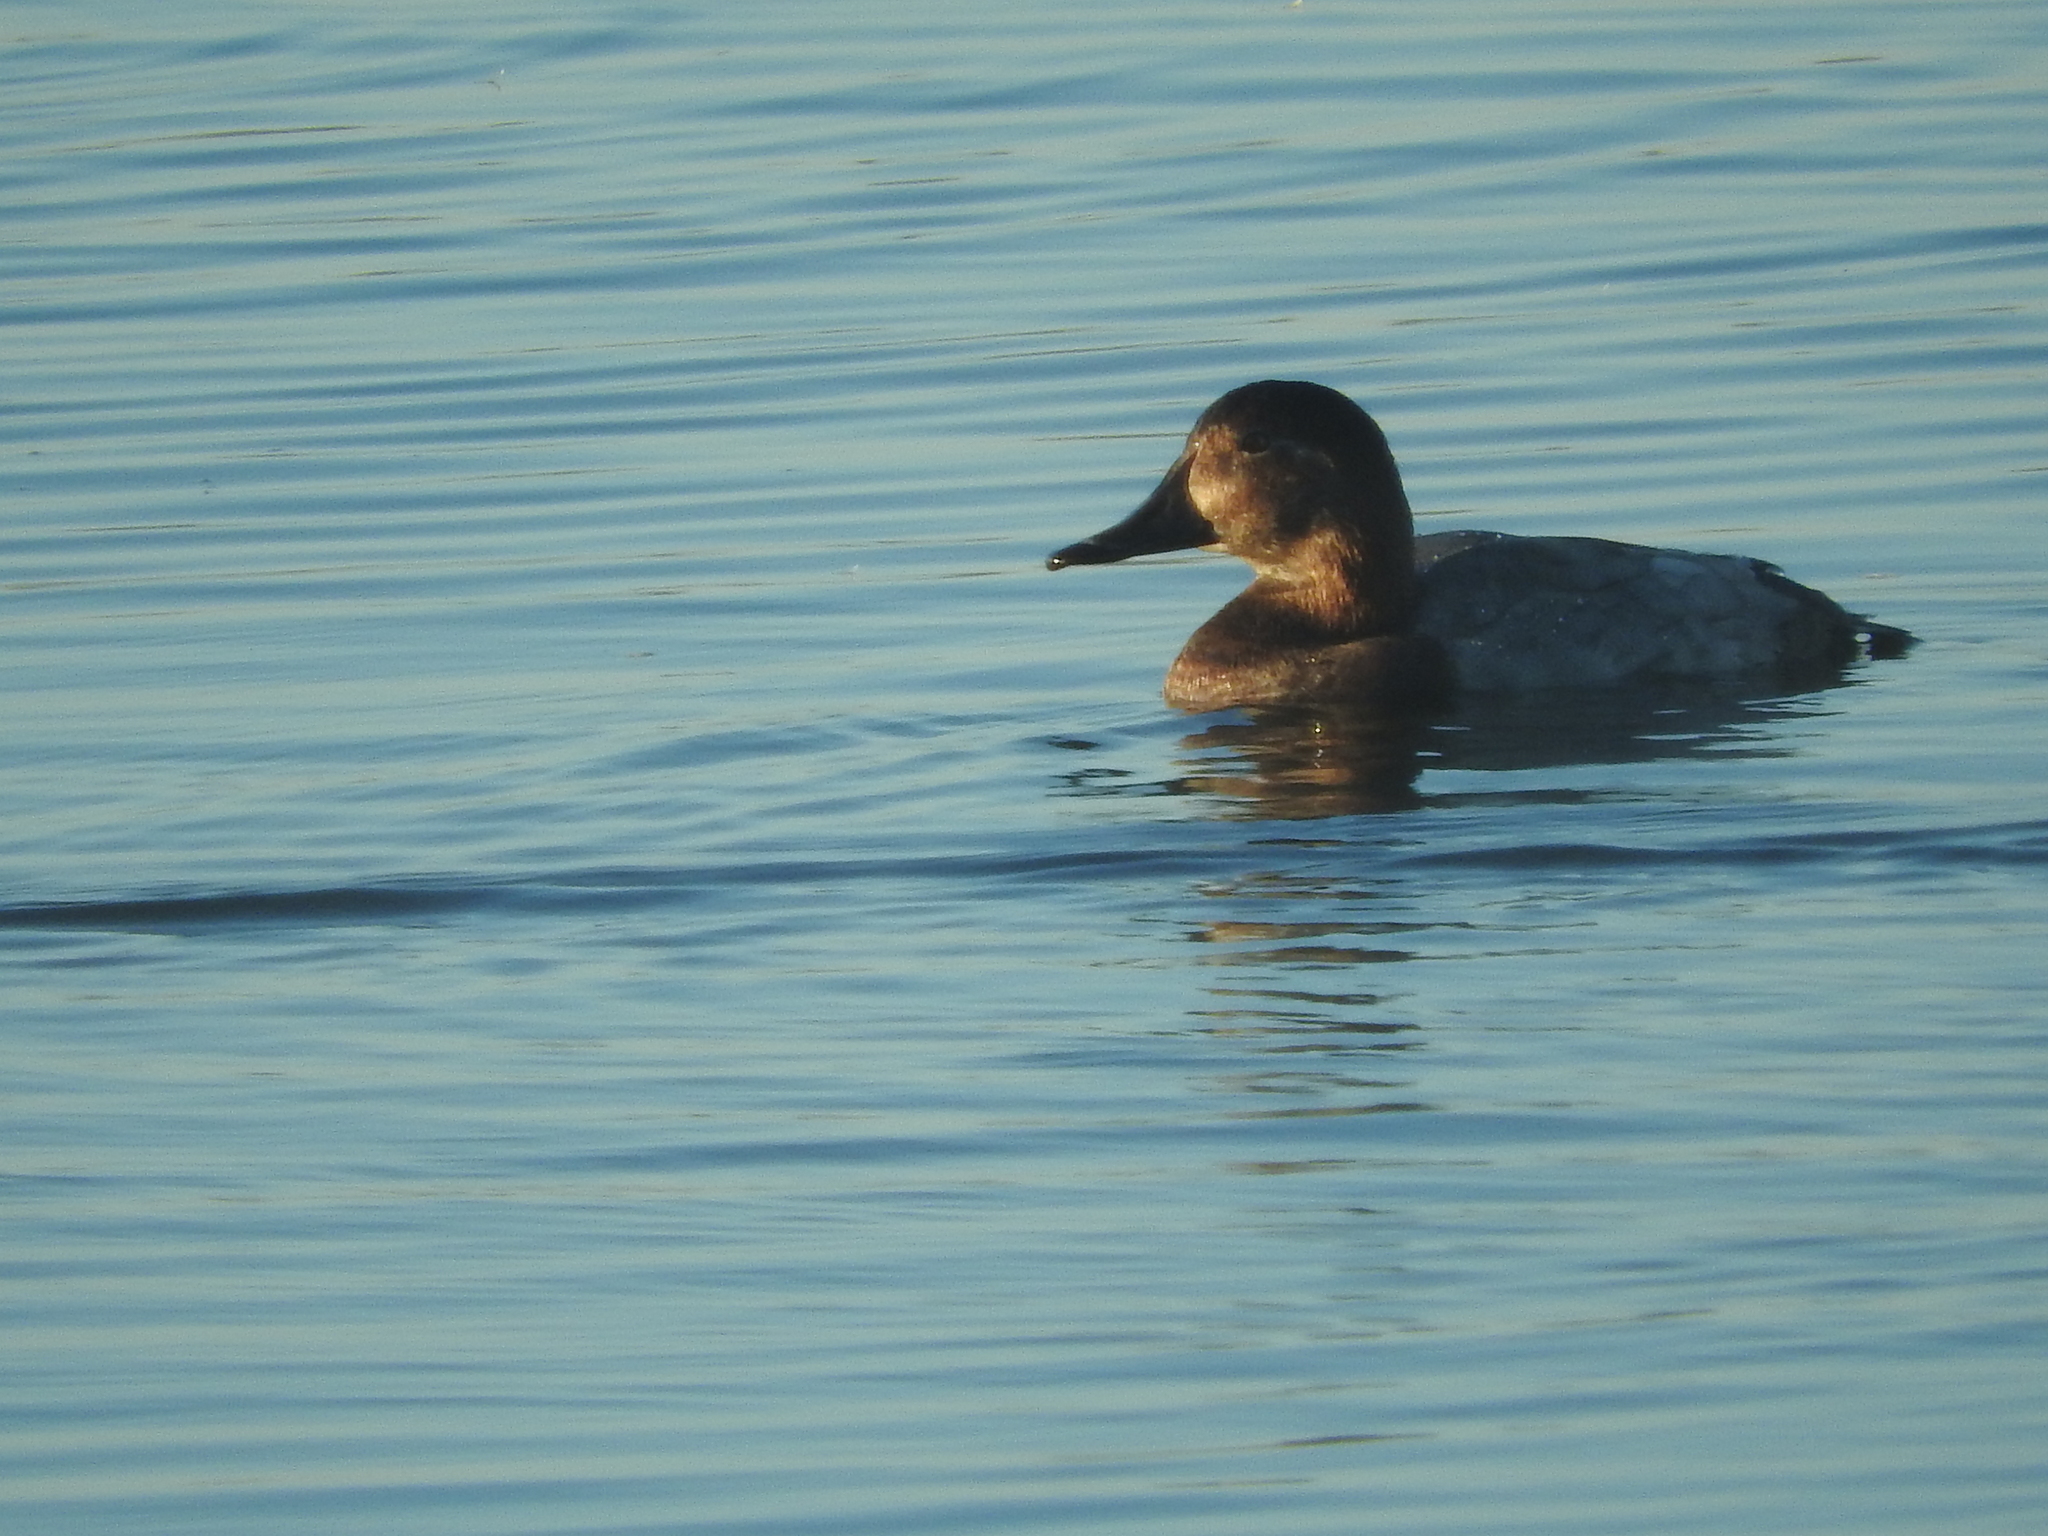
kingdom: Animalia
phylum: Chordata
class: Aves
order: Anseriformes
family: Anatidae
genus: Aythya
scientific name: Aythya ferina
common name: Common pochard
